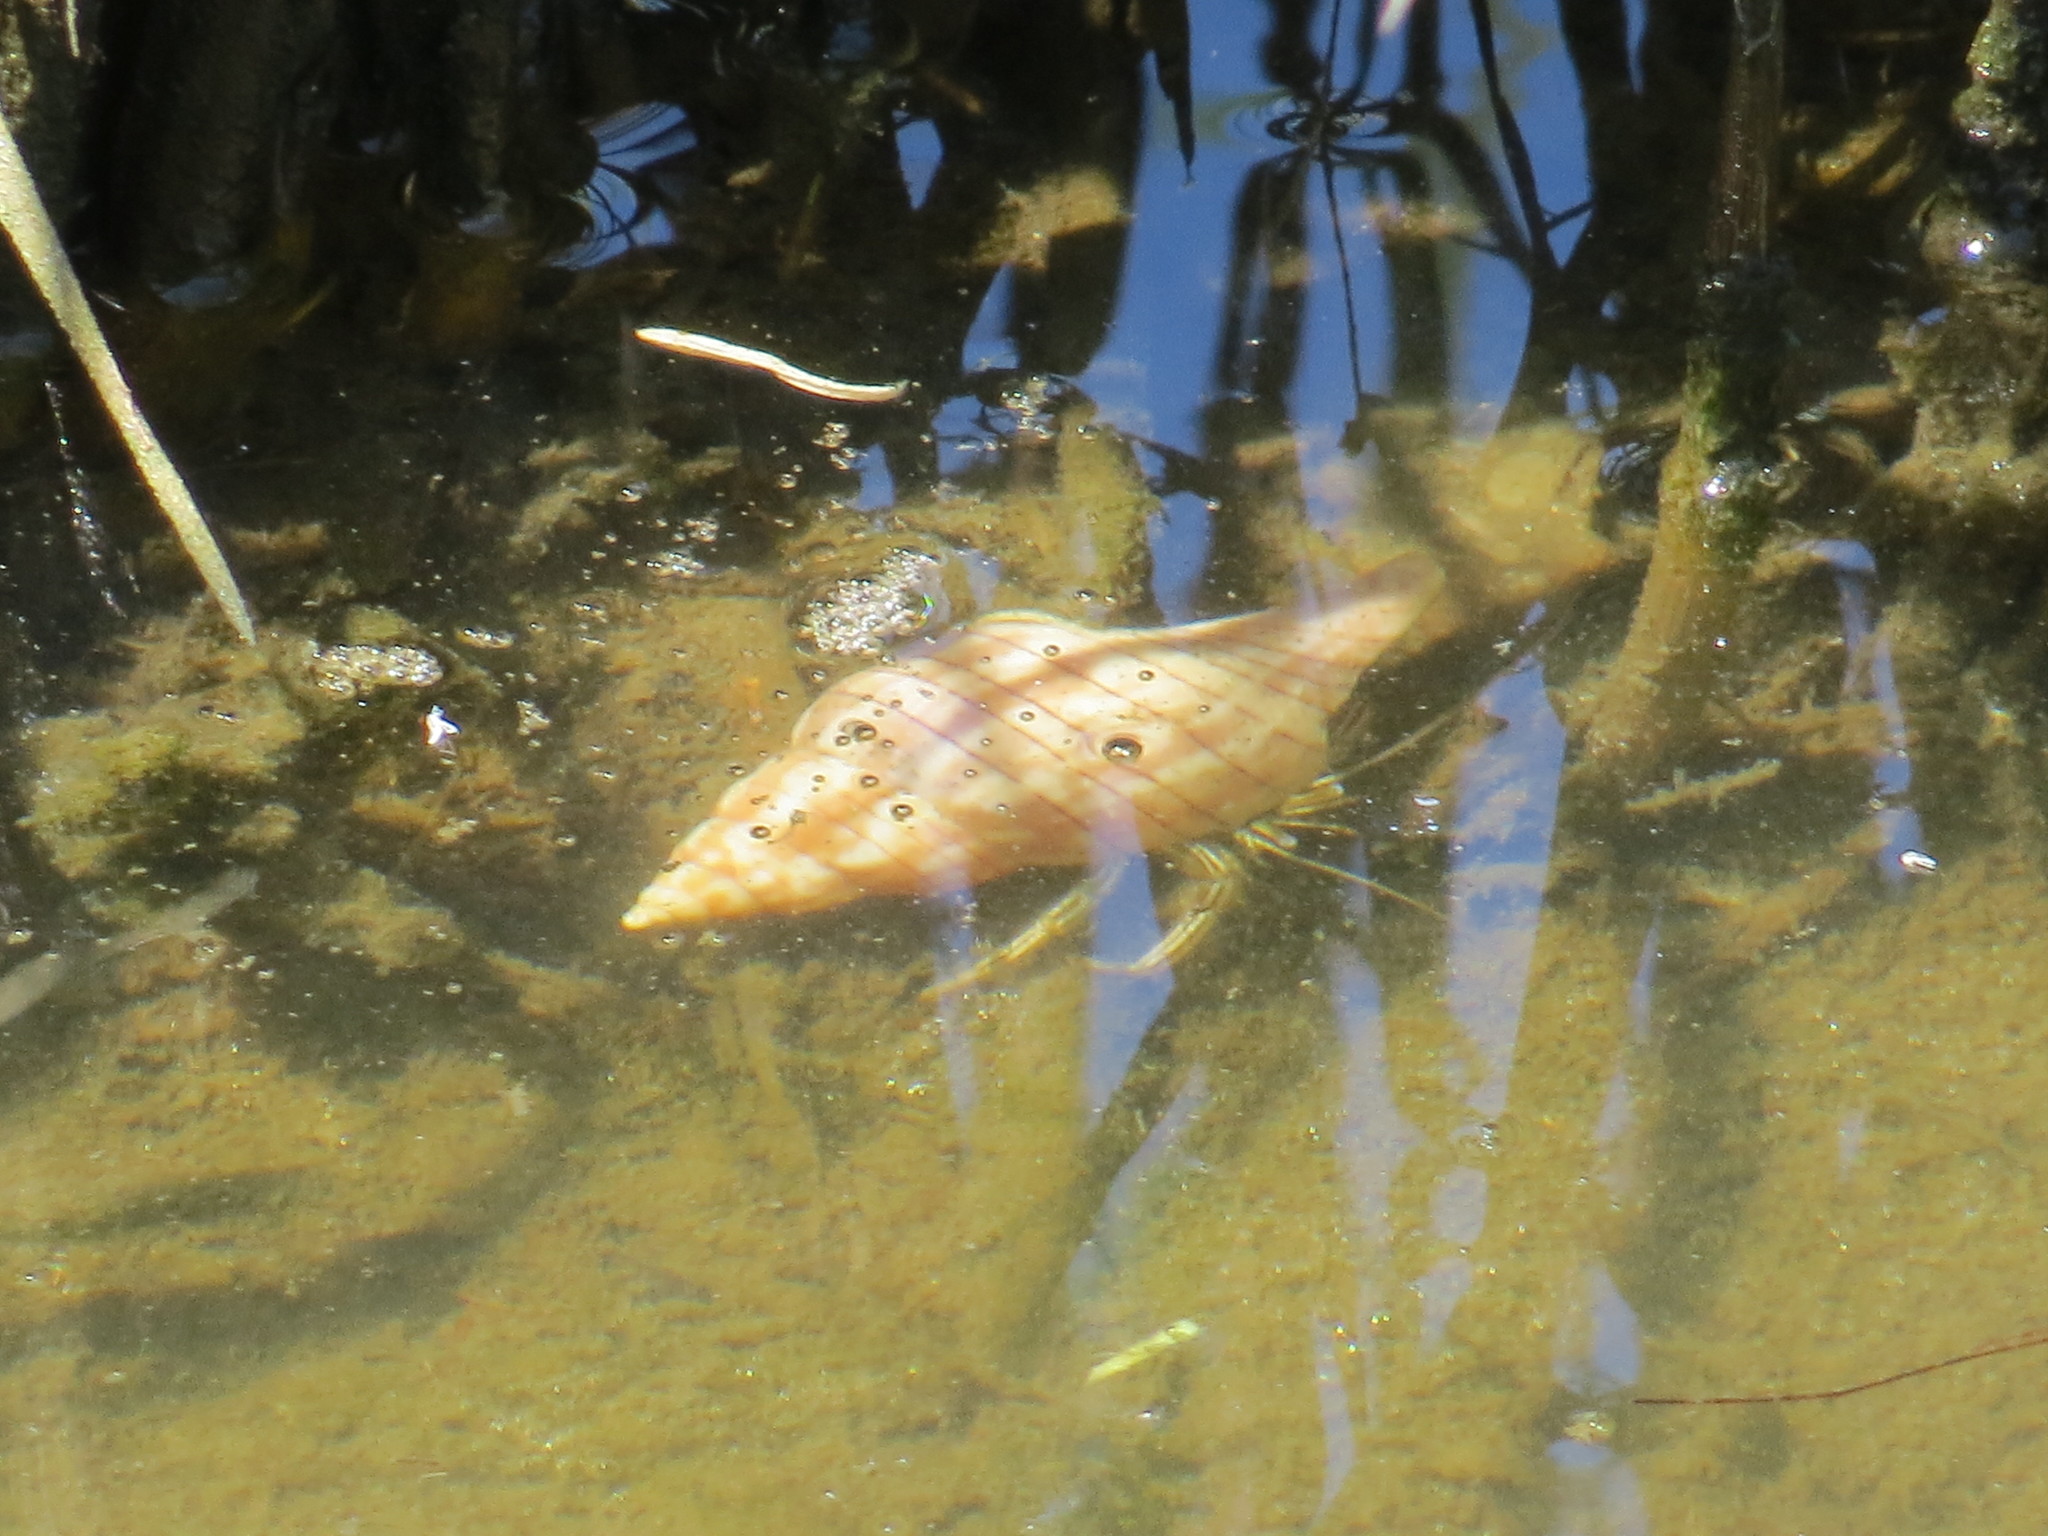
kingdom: Animalia
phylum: Arthropoda
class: Malacostraca
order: Decapoda
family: Diogenidae
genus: Clibanarius
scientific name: Clibanarius vittatus
